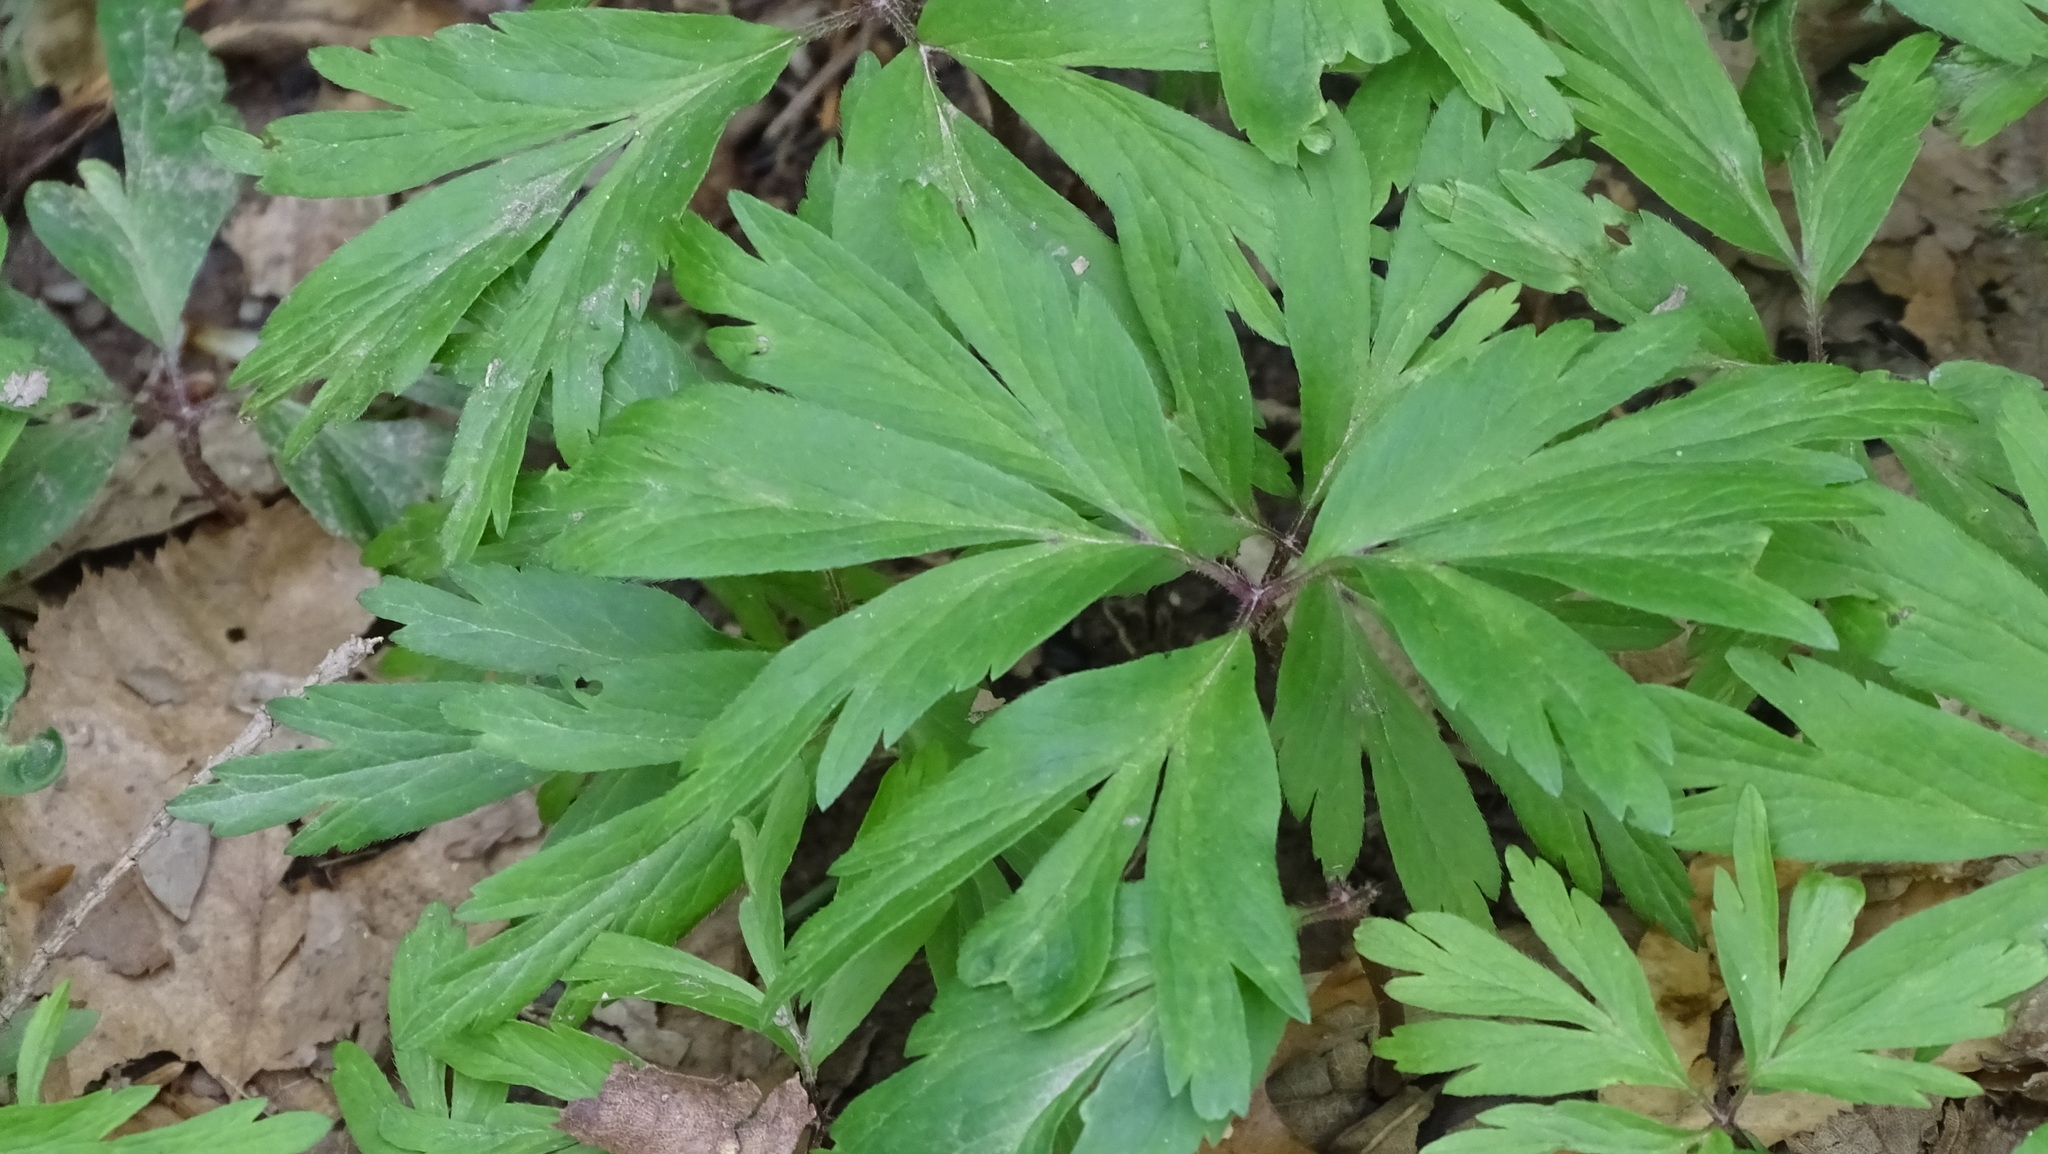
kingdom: Plantae
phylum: Tracheophyta
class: Magnoliopsida
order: Ranunculales
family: Ranunculaceae
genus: Anemone
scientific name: Anemone nemorosa
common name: Wood anemone
